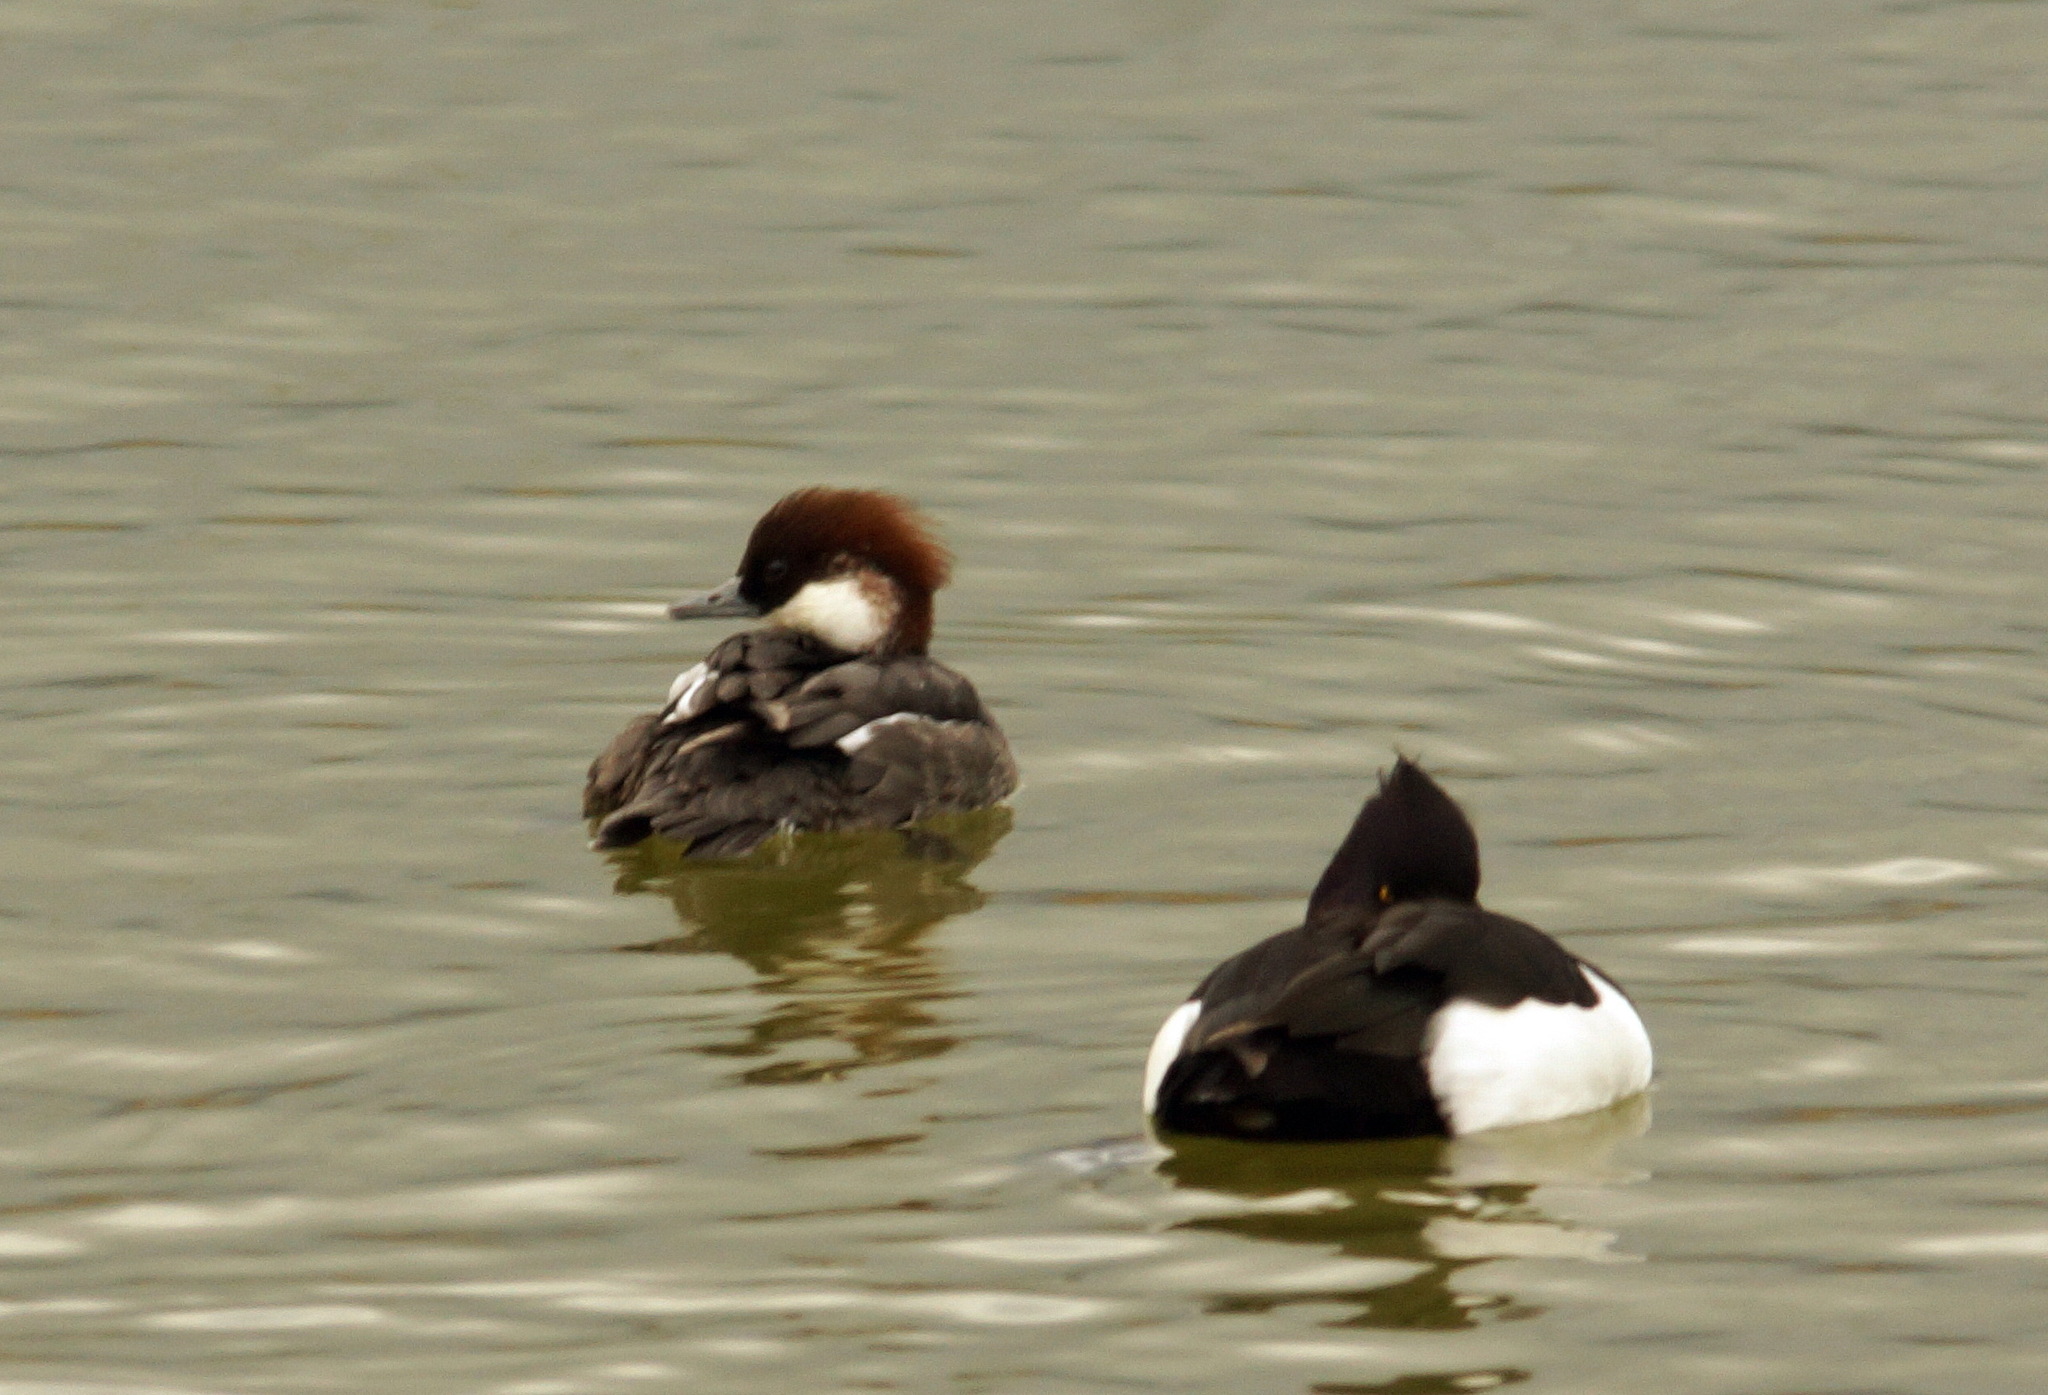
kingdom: Animalia
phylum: Chordata
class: Aves
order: Anseriformes
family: Anatidae
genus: Mergellus
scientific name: Mergellus albellus
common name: Smew
